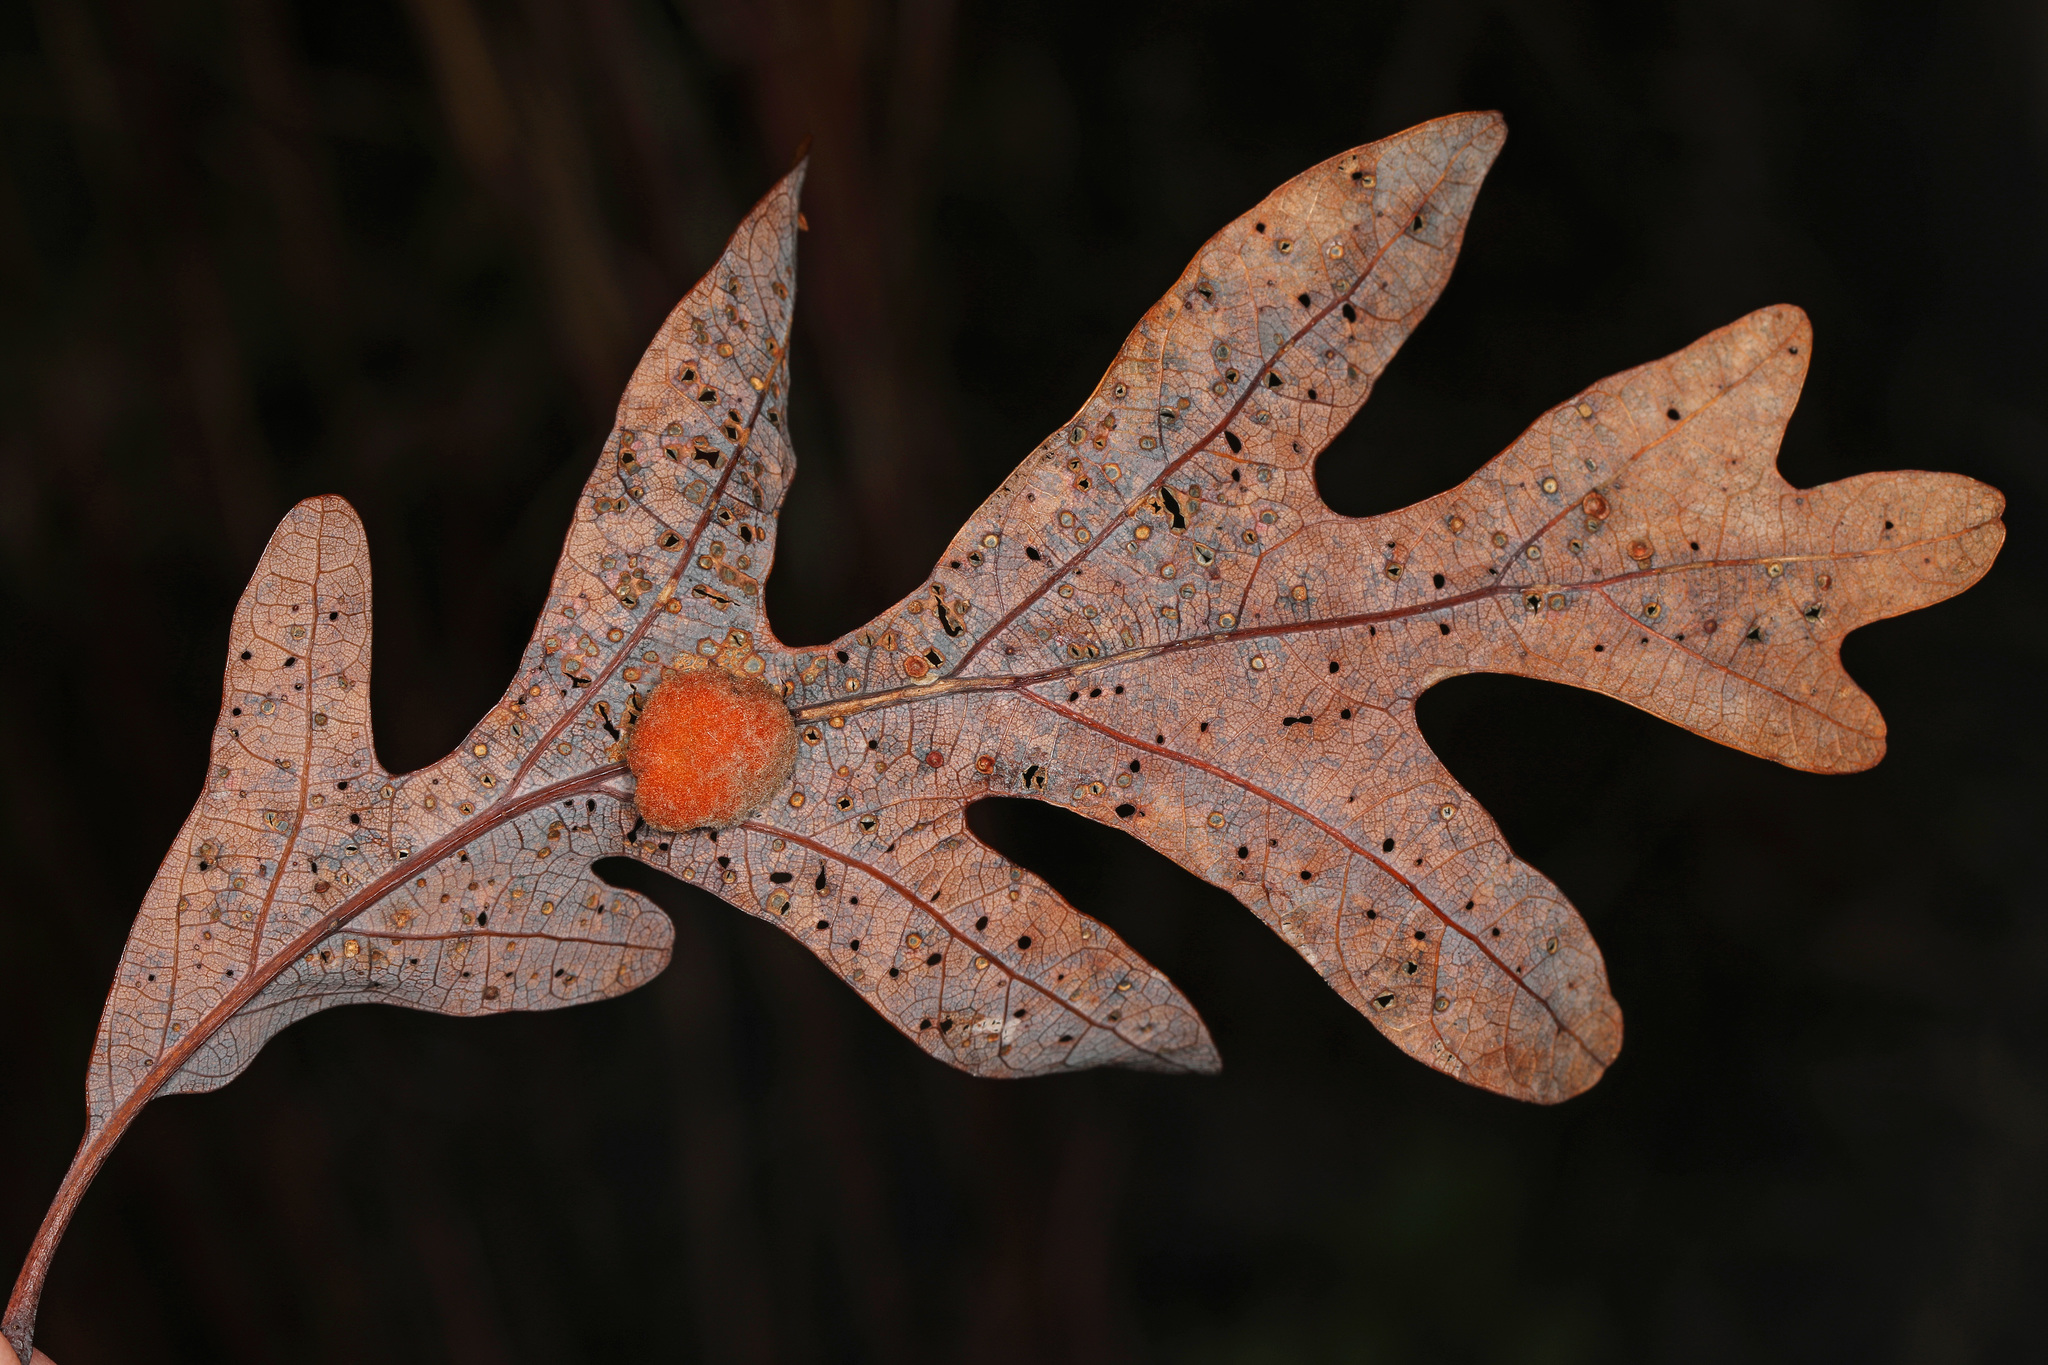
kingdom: Animalia
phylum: Arthropoda
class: Insecta
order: Hymenoptera
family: Cynipidae
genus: Andricus
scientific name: Andricus quercusflocci
